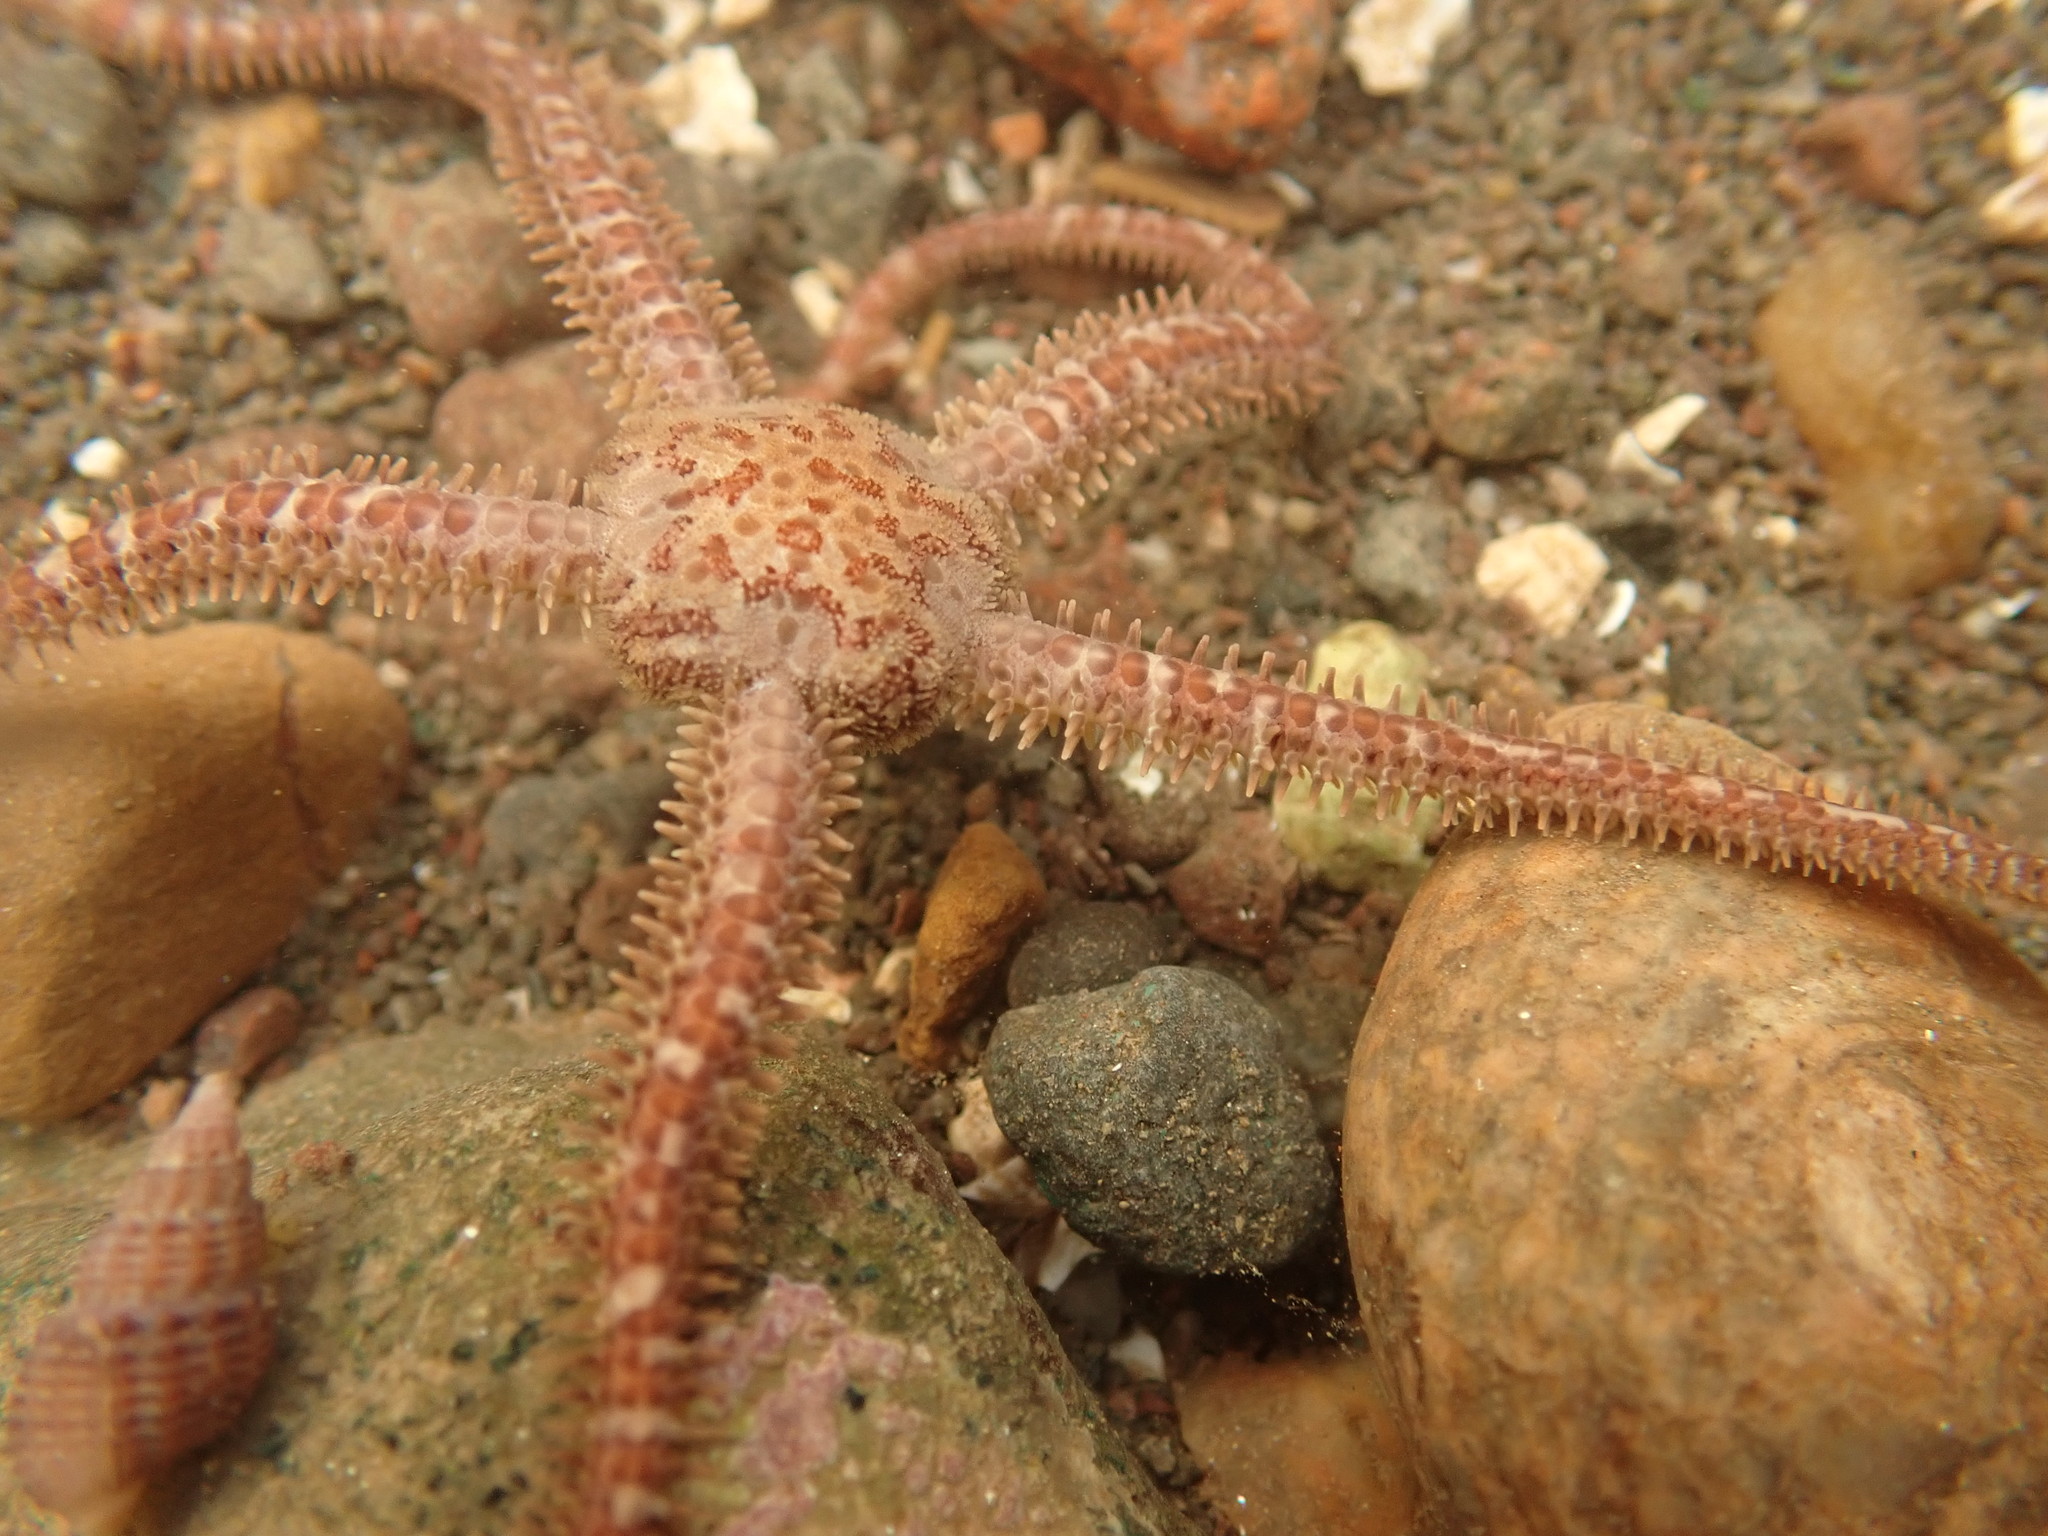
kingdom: Animalia
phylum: Echinodermata
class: Ophiuroidea
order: Amphilepidida
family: Ophiopholidae
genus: Ophiopholis
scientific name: Ophiopholis aculeata
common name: Crevice brittlestar
